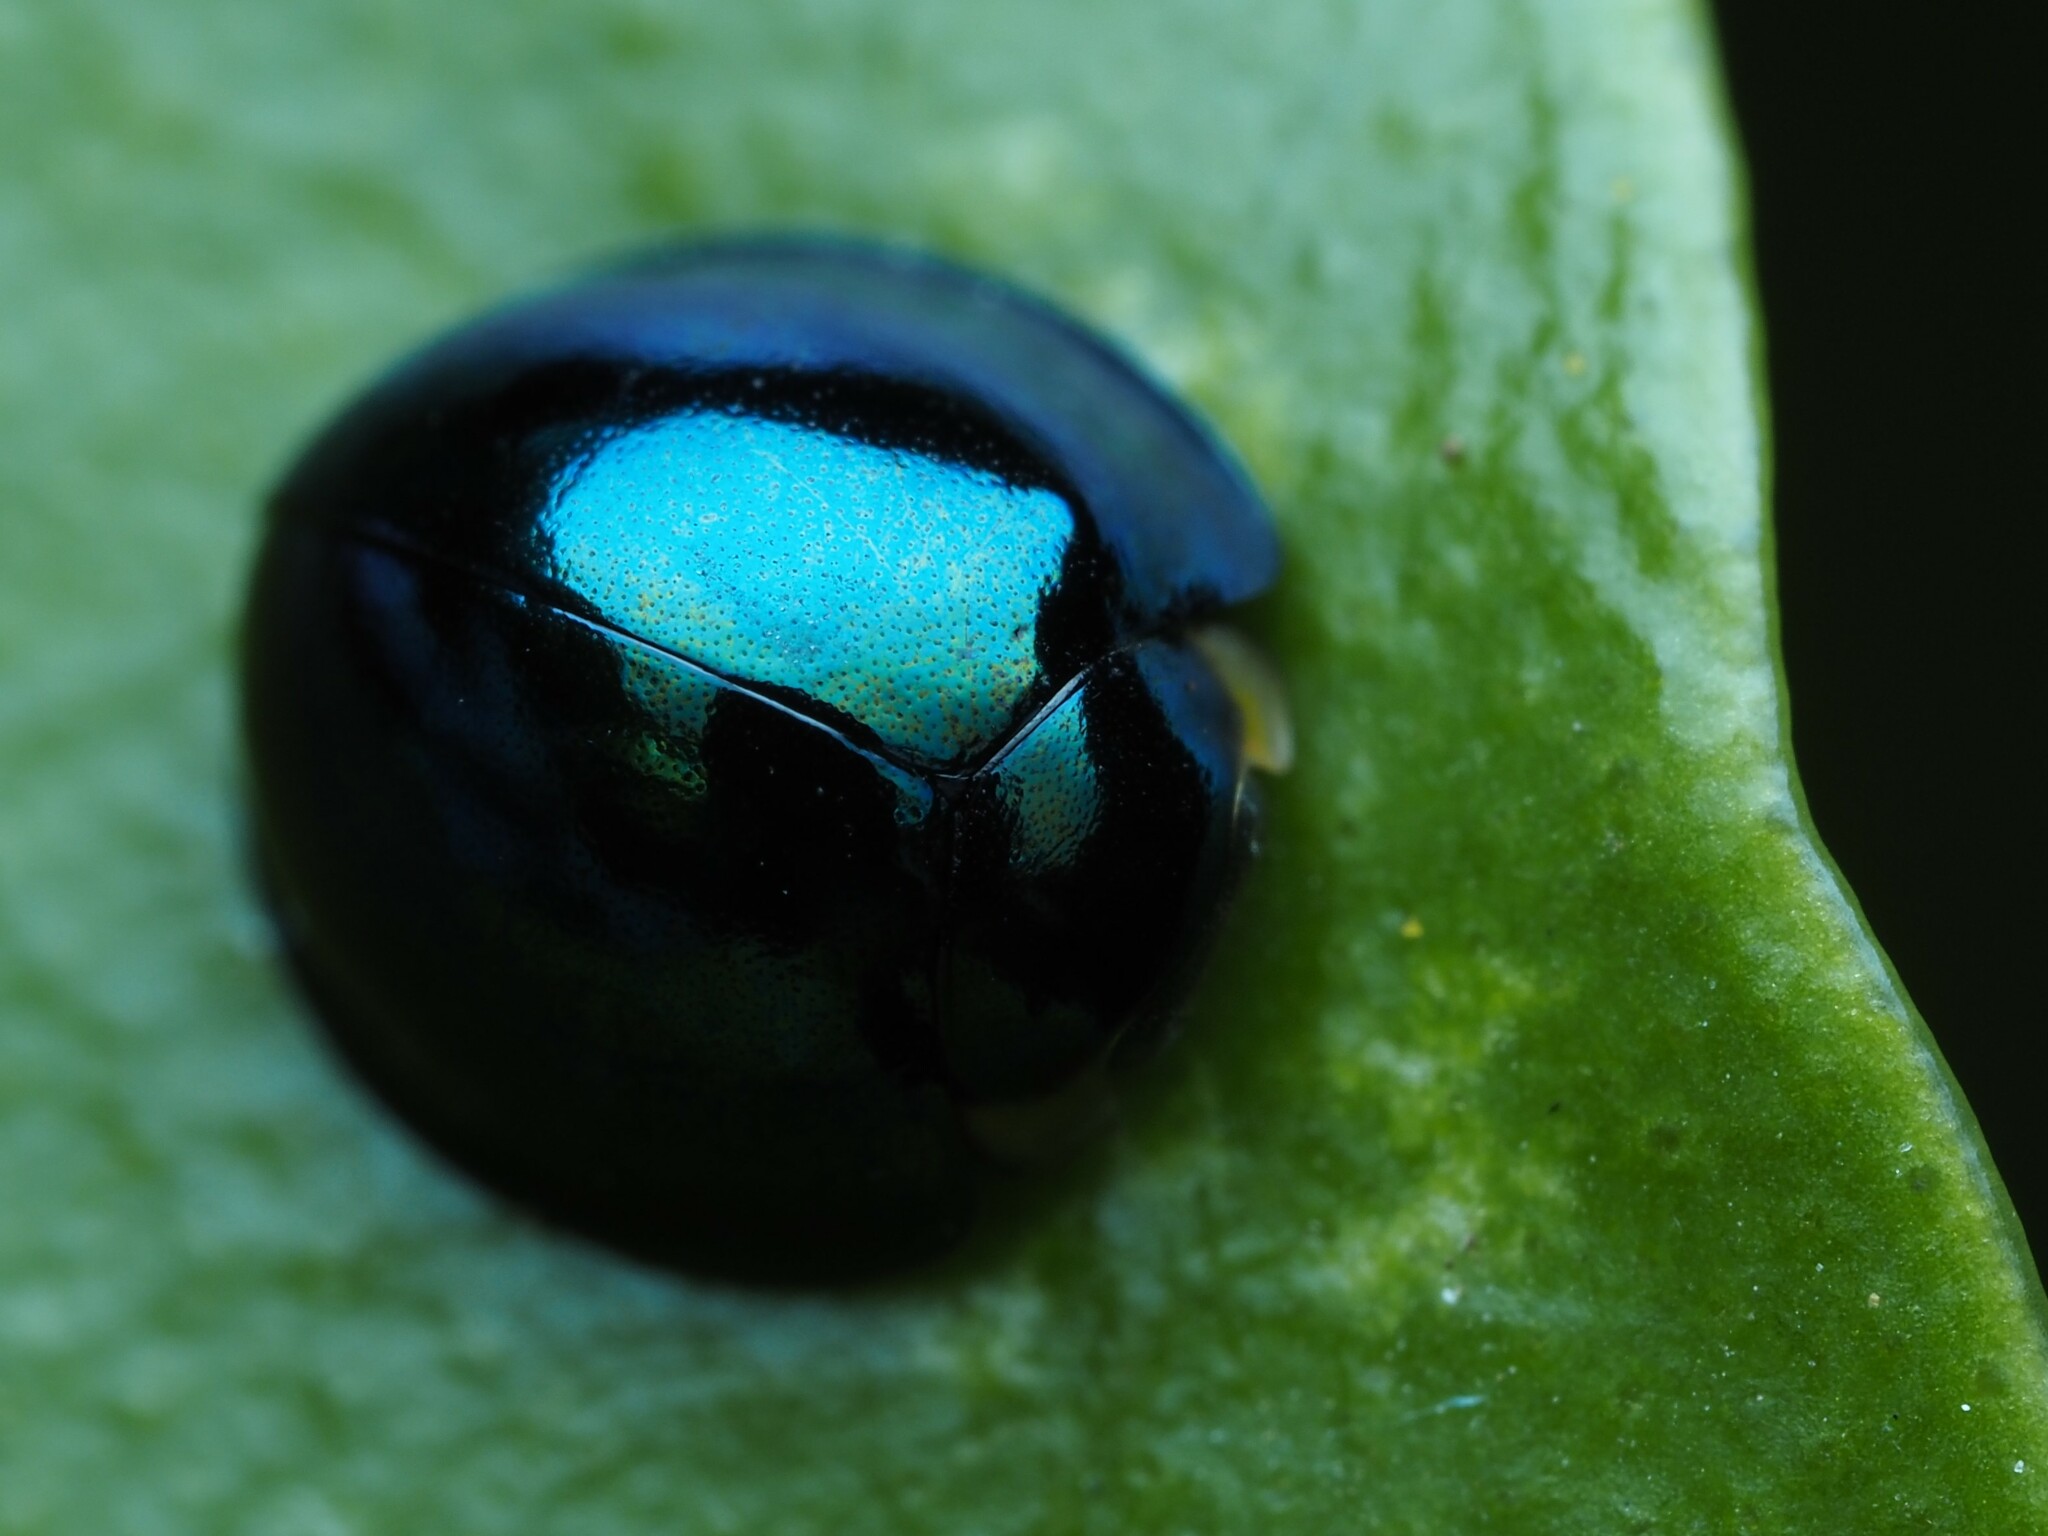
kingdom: Animalia
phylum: Arthropoda
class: Insecta
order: Coleoptera
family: Coccinellidae
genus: Halmus
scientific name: Halmus chalybeus
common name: Steel blue ladybird beetle
